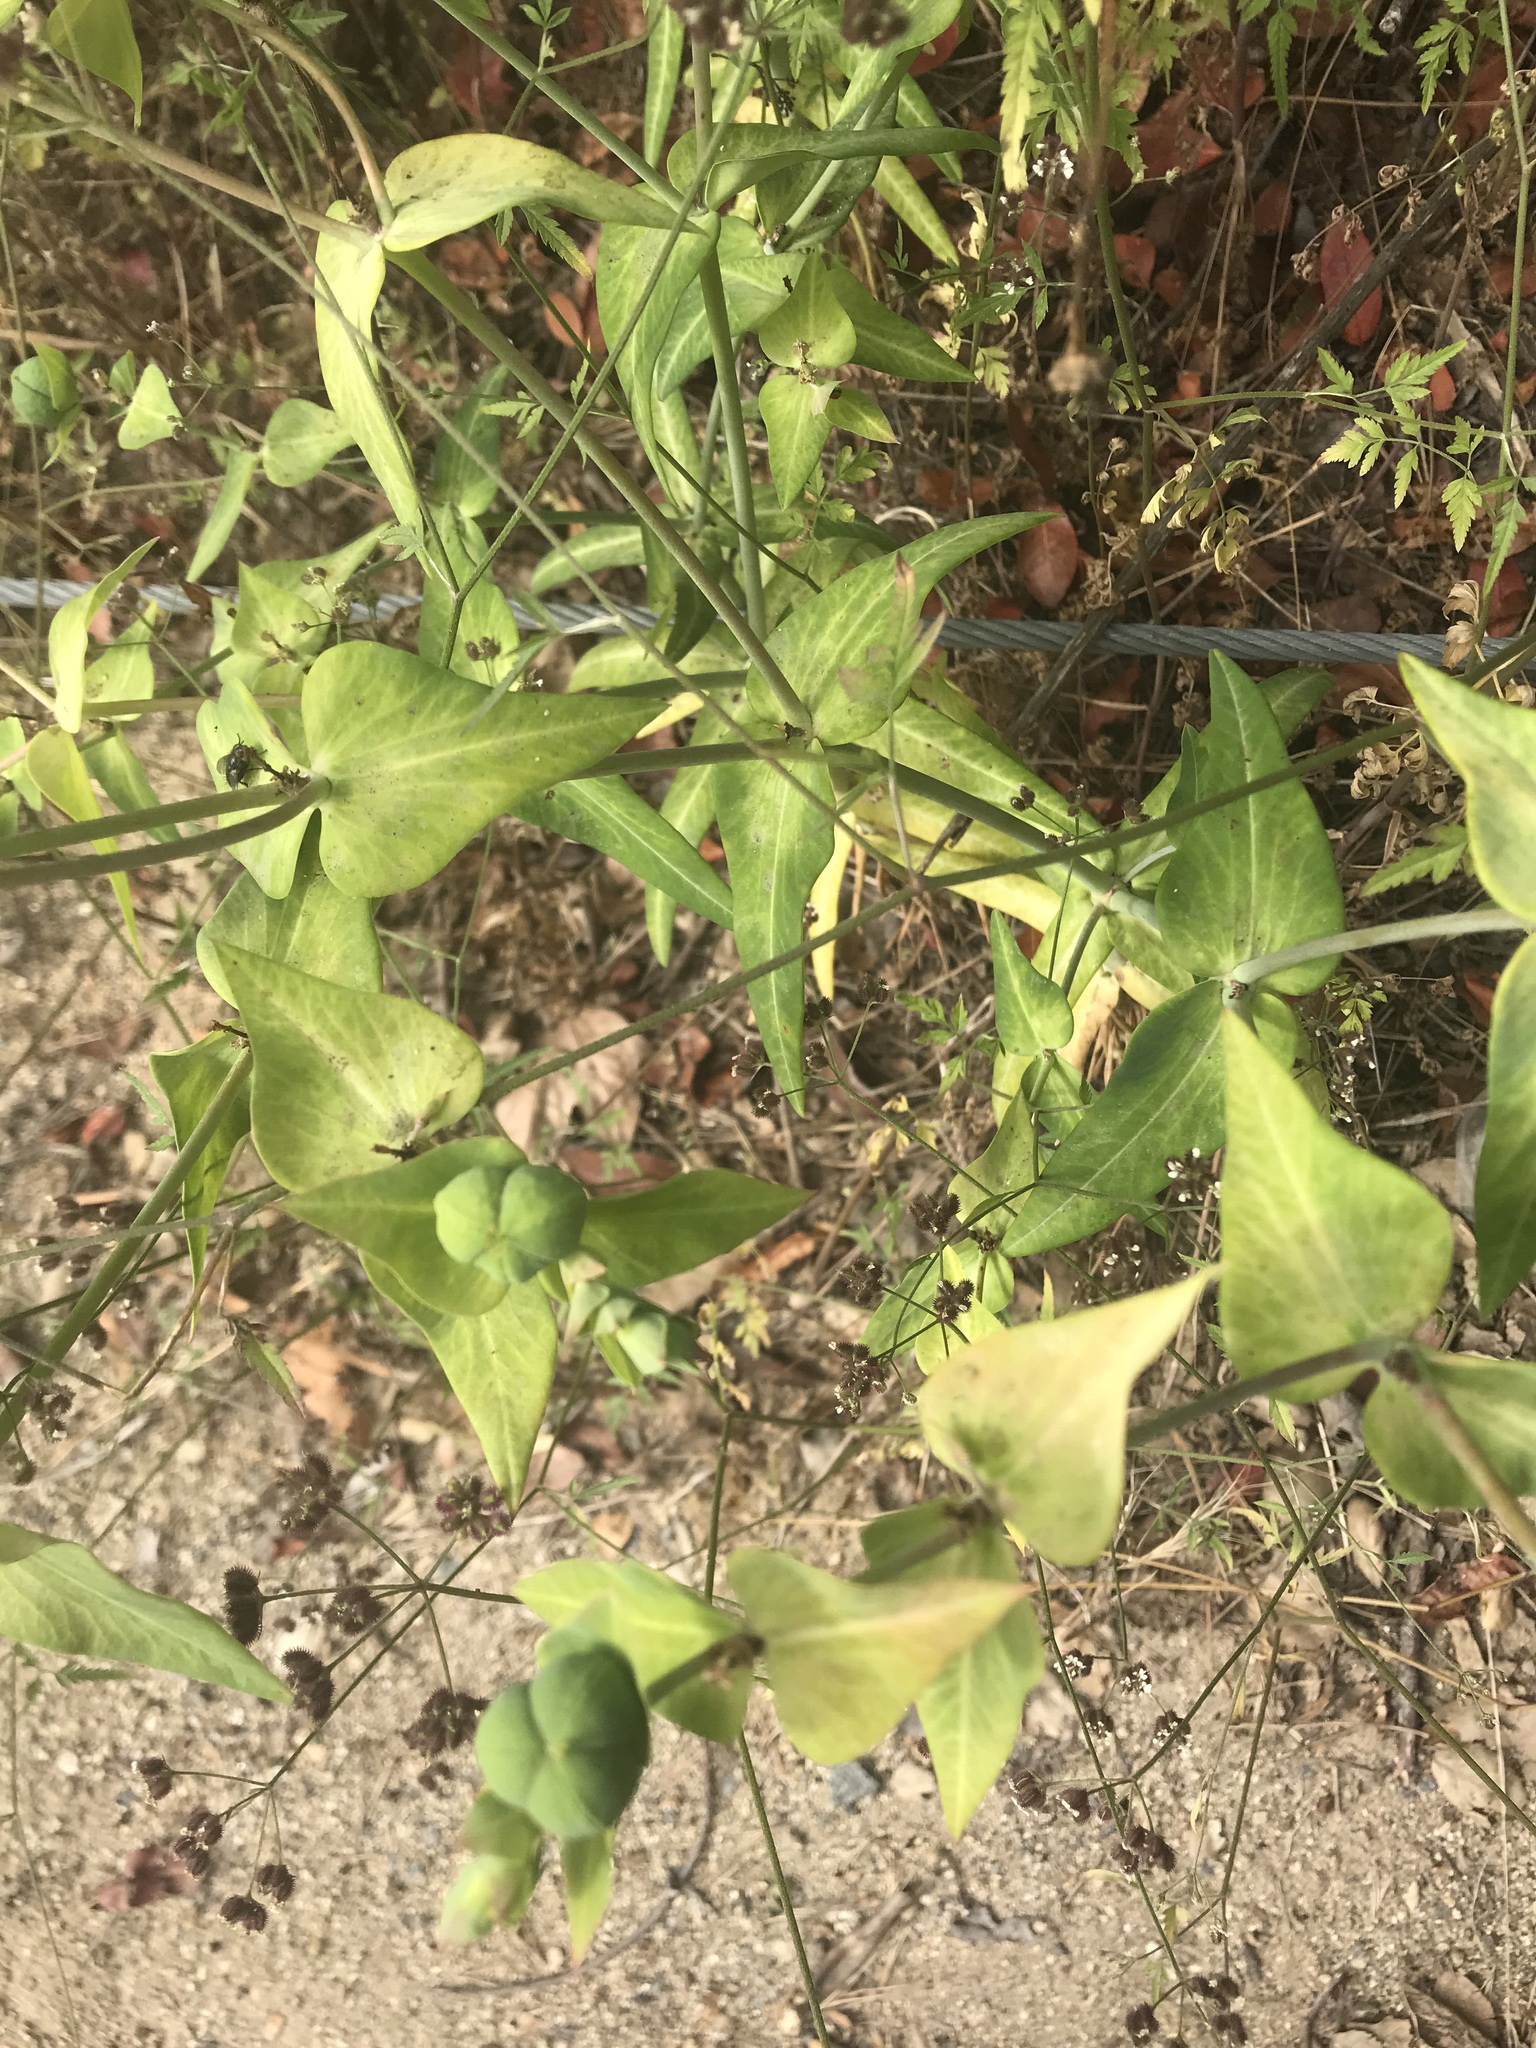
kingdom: Plantae
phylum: Tracheophyta
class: Magnoliopsida
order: Malpighiales
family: Euphorbiaceae
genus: Euphorbia
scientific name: Euphorbia lathyris
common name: Caper spurge
